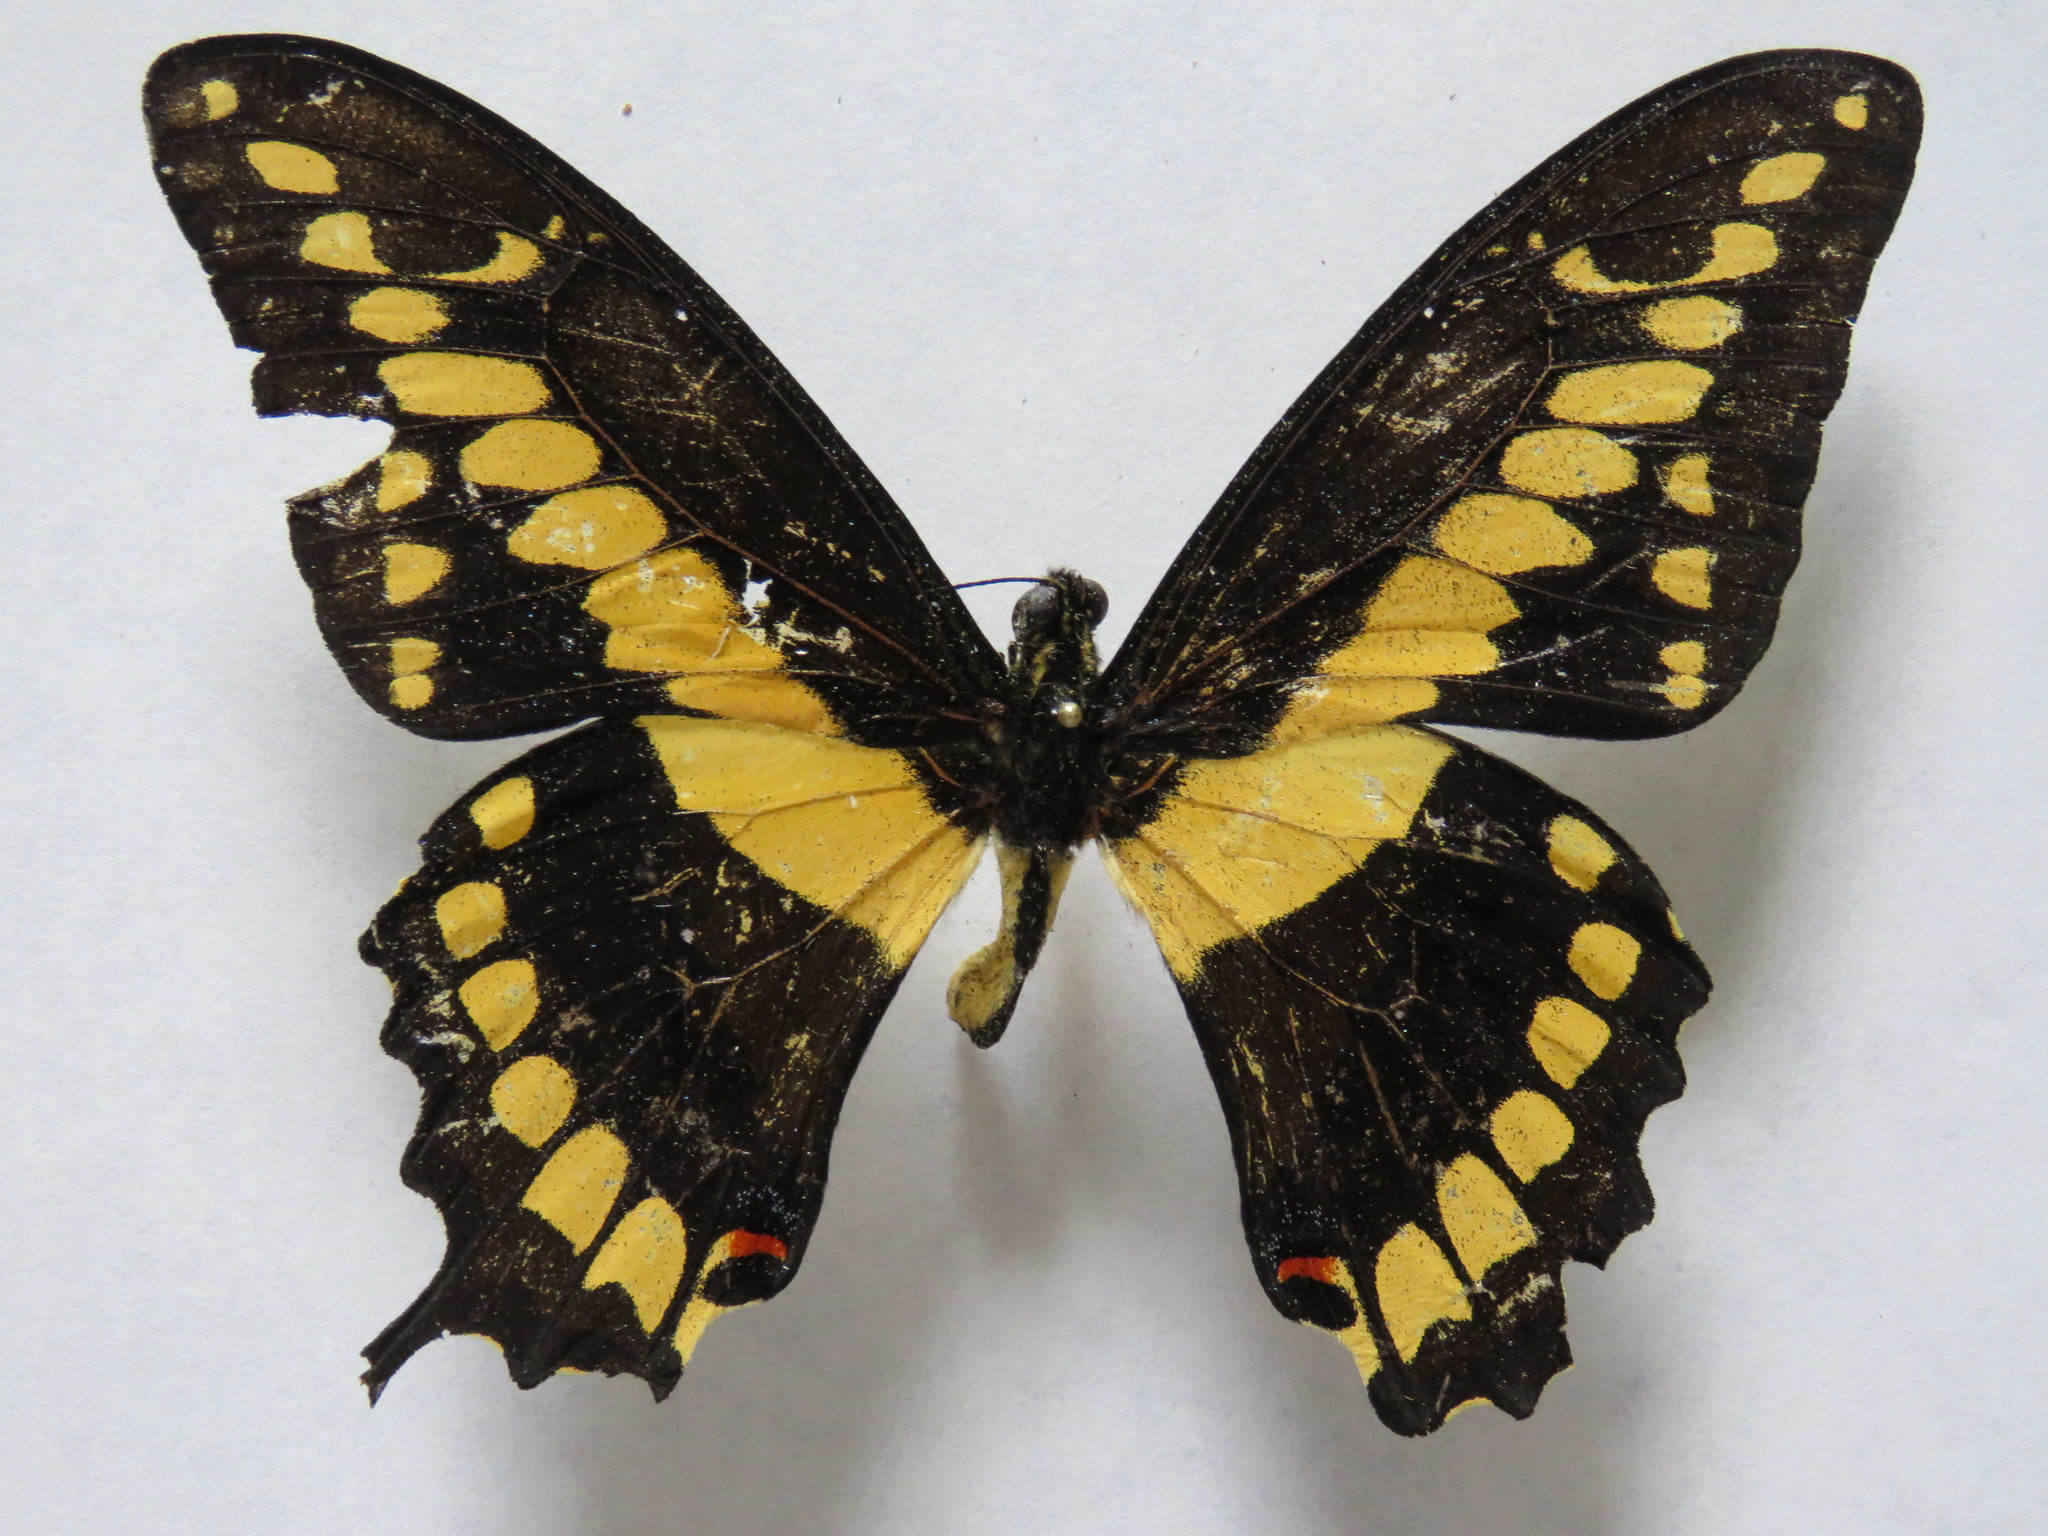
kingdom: Animalia
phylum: Arthropoda
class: Insecta
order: Lepidoptera
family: Papilionidae
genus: Papilio
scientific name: Papilio rumiko
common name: Western giant swallowtail
